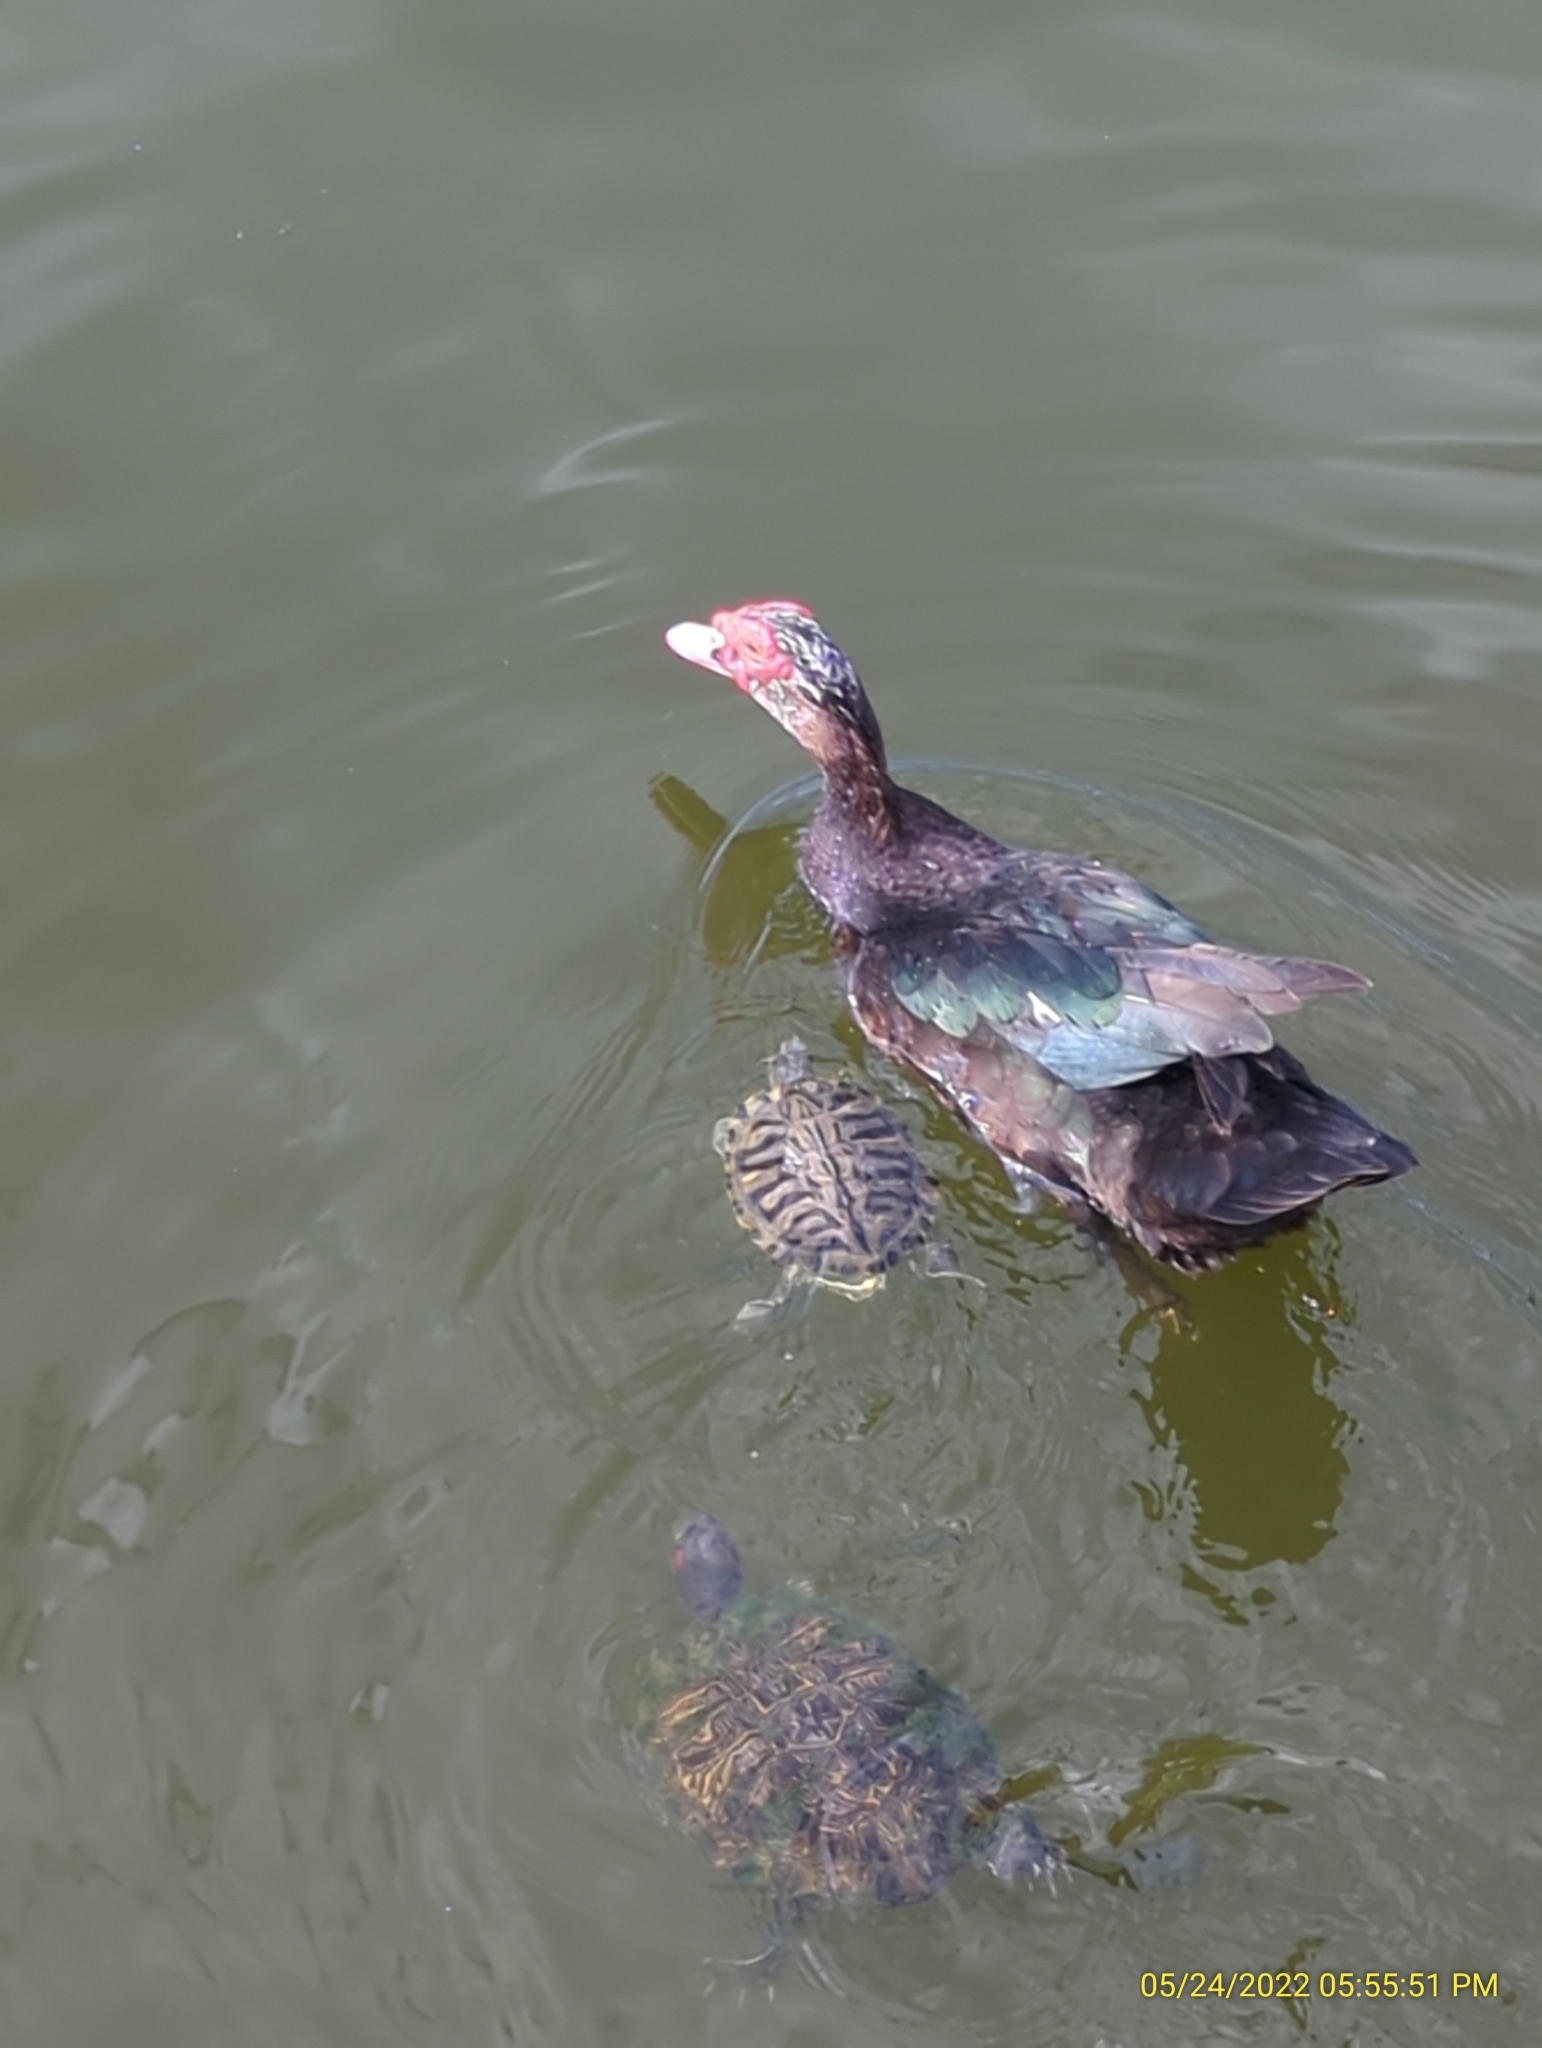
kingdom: Animalia
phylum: Chordata
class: Aves
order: Anseriformes
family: Anatidae
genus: Cairina
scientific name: Cairina moschata
